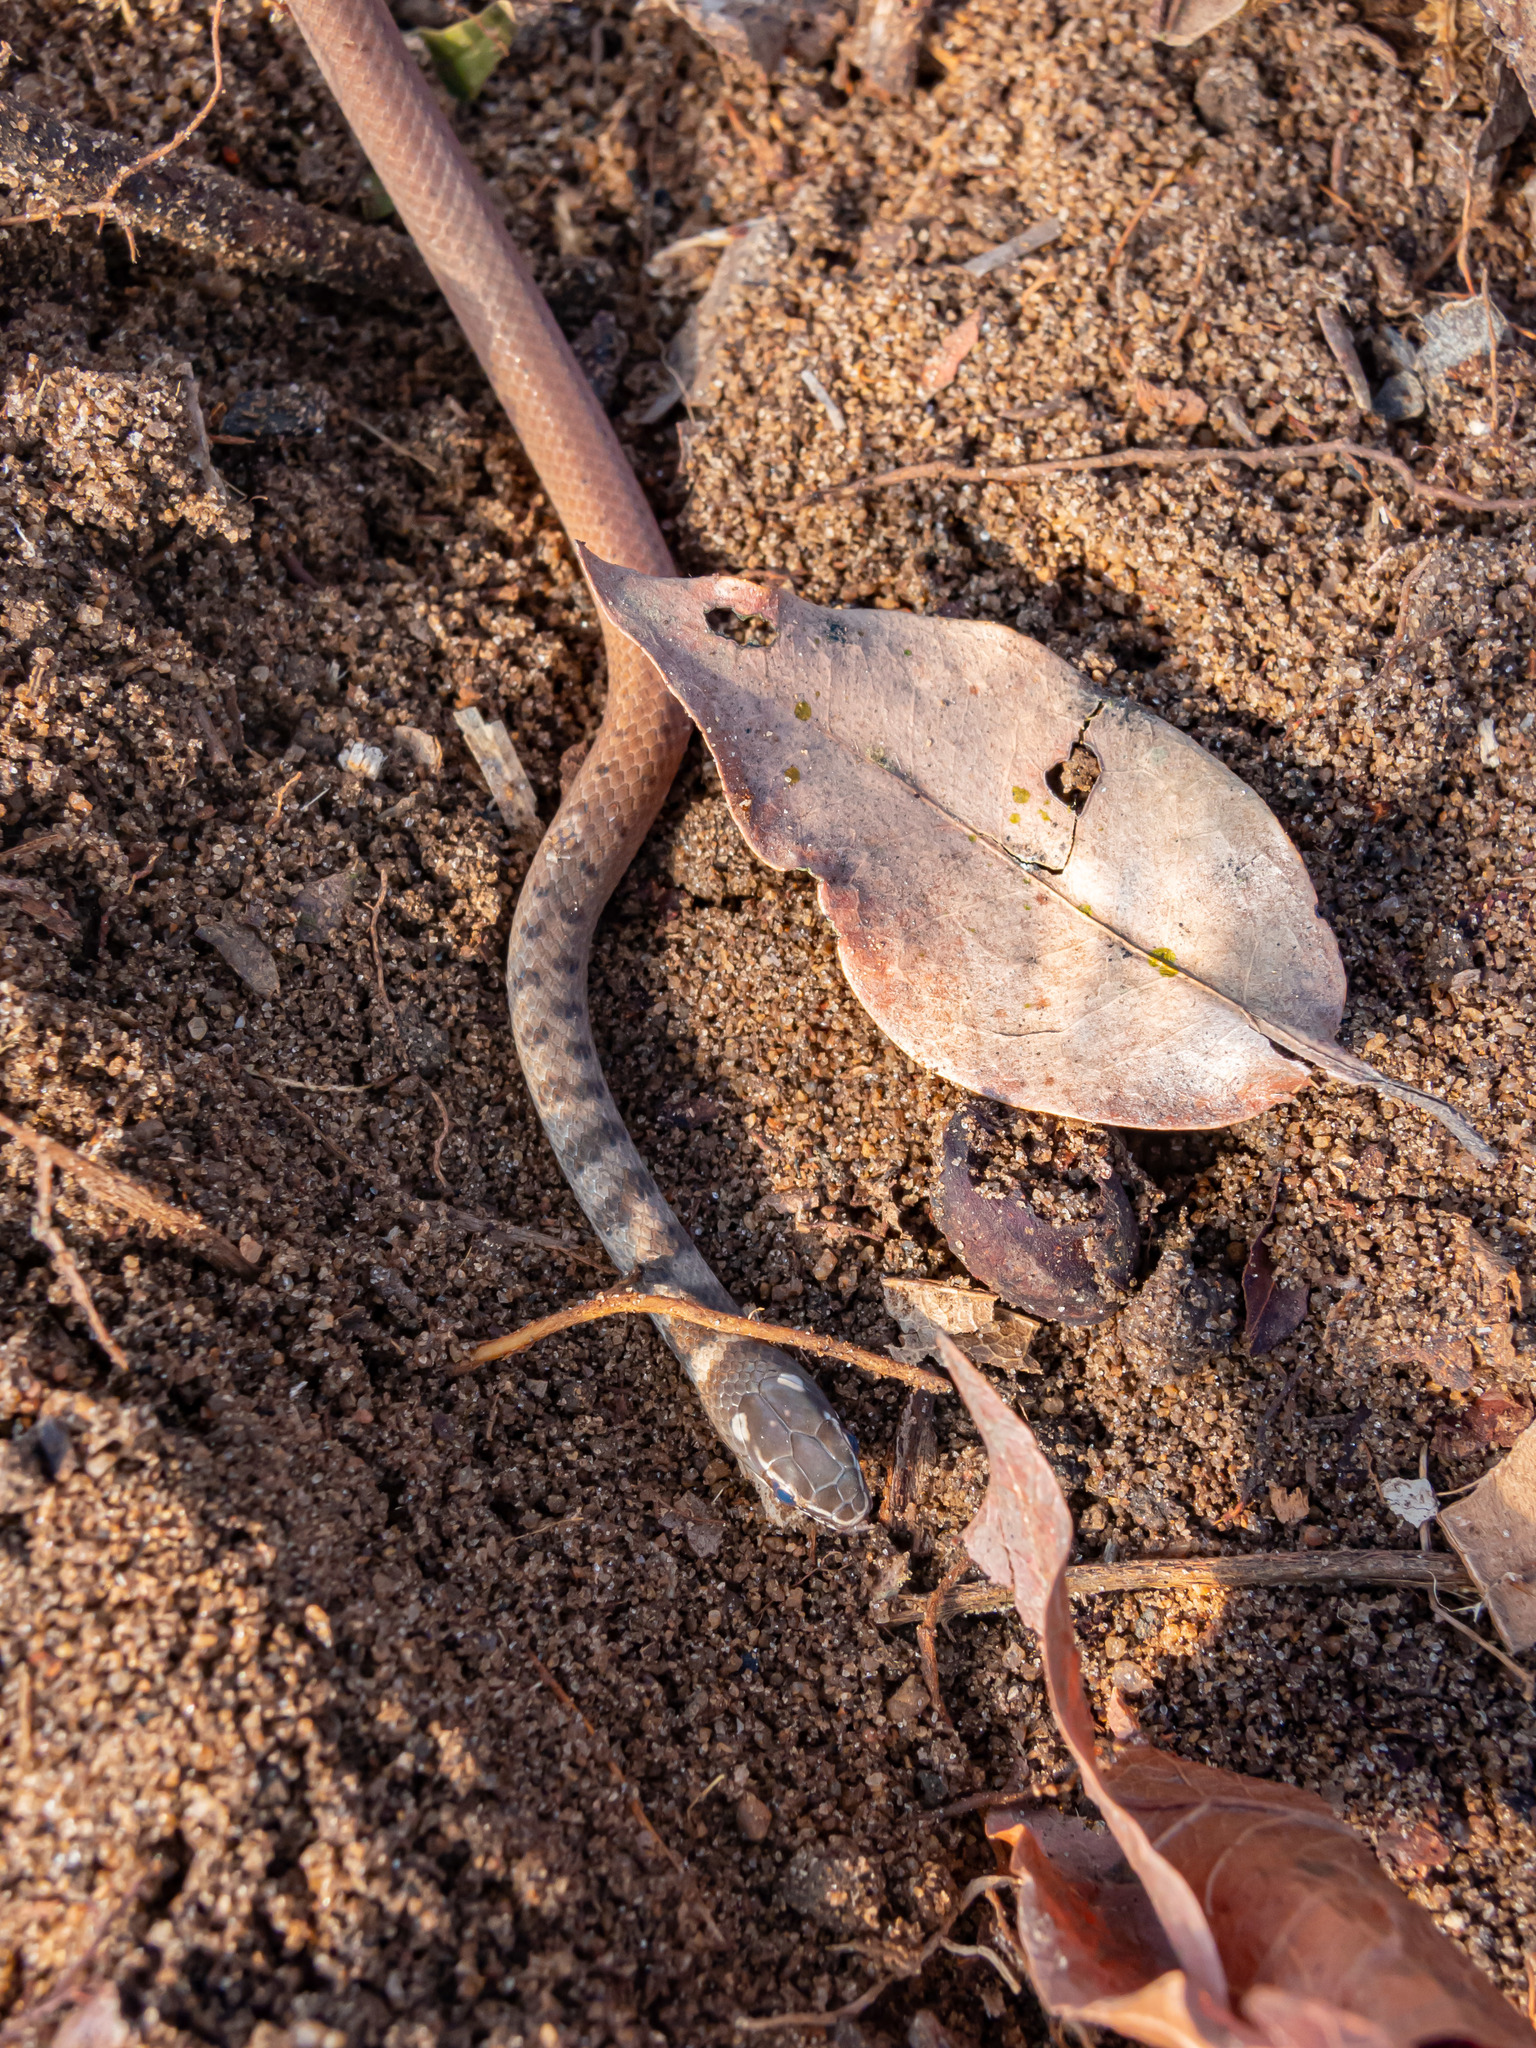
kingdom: Animalia
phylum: Chordata
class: Squamata
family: Colubridae
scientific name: Colubridae
